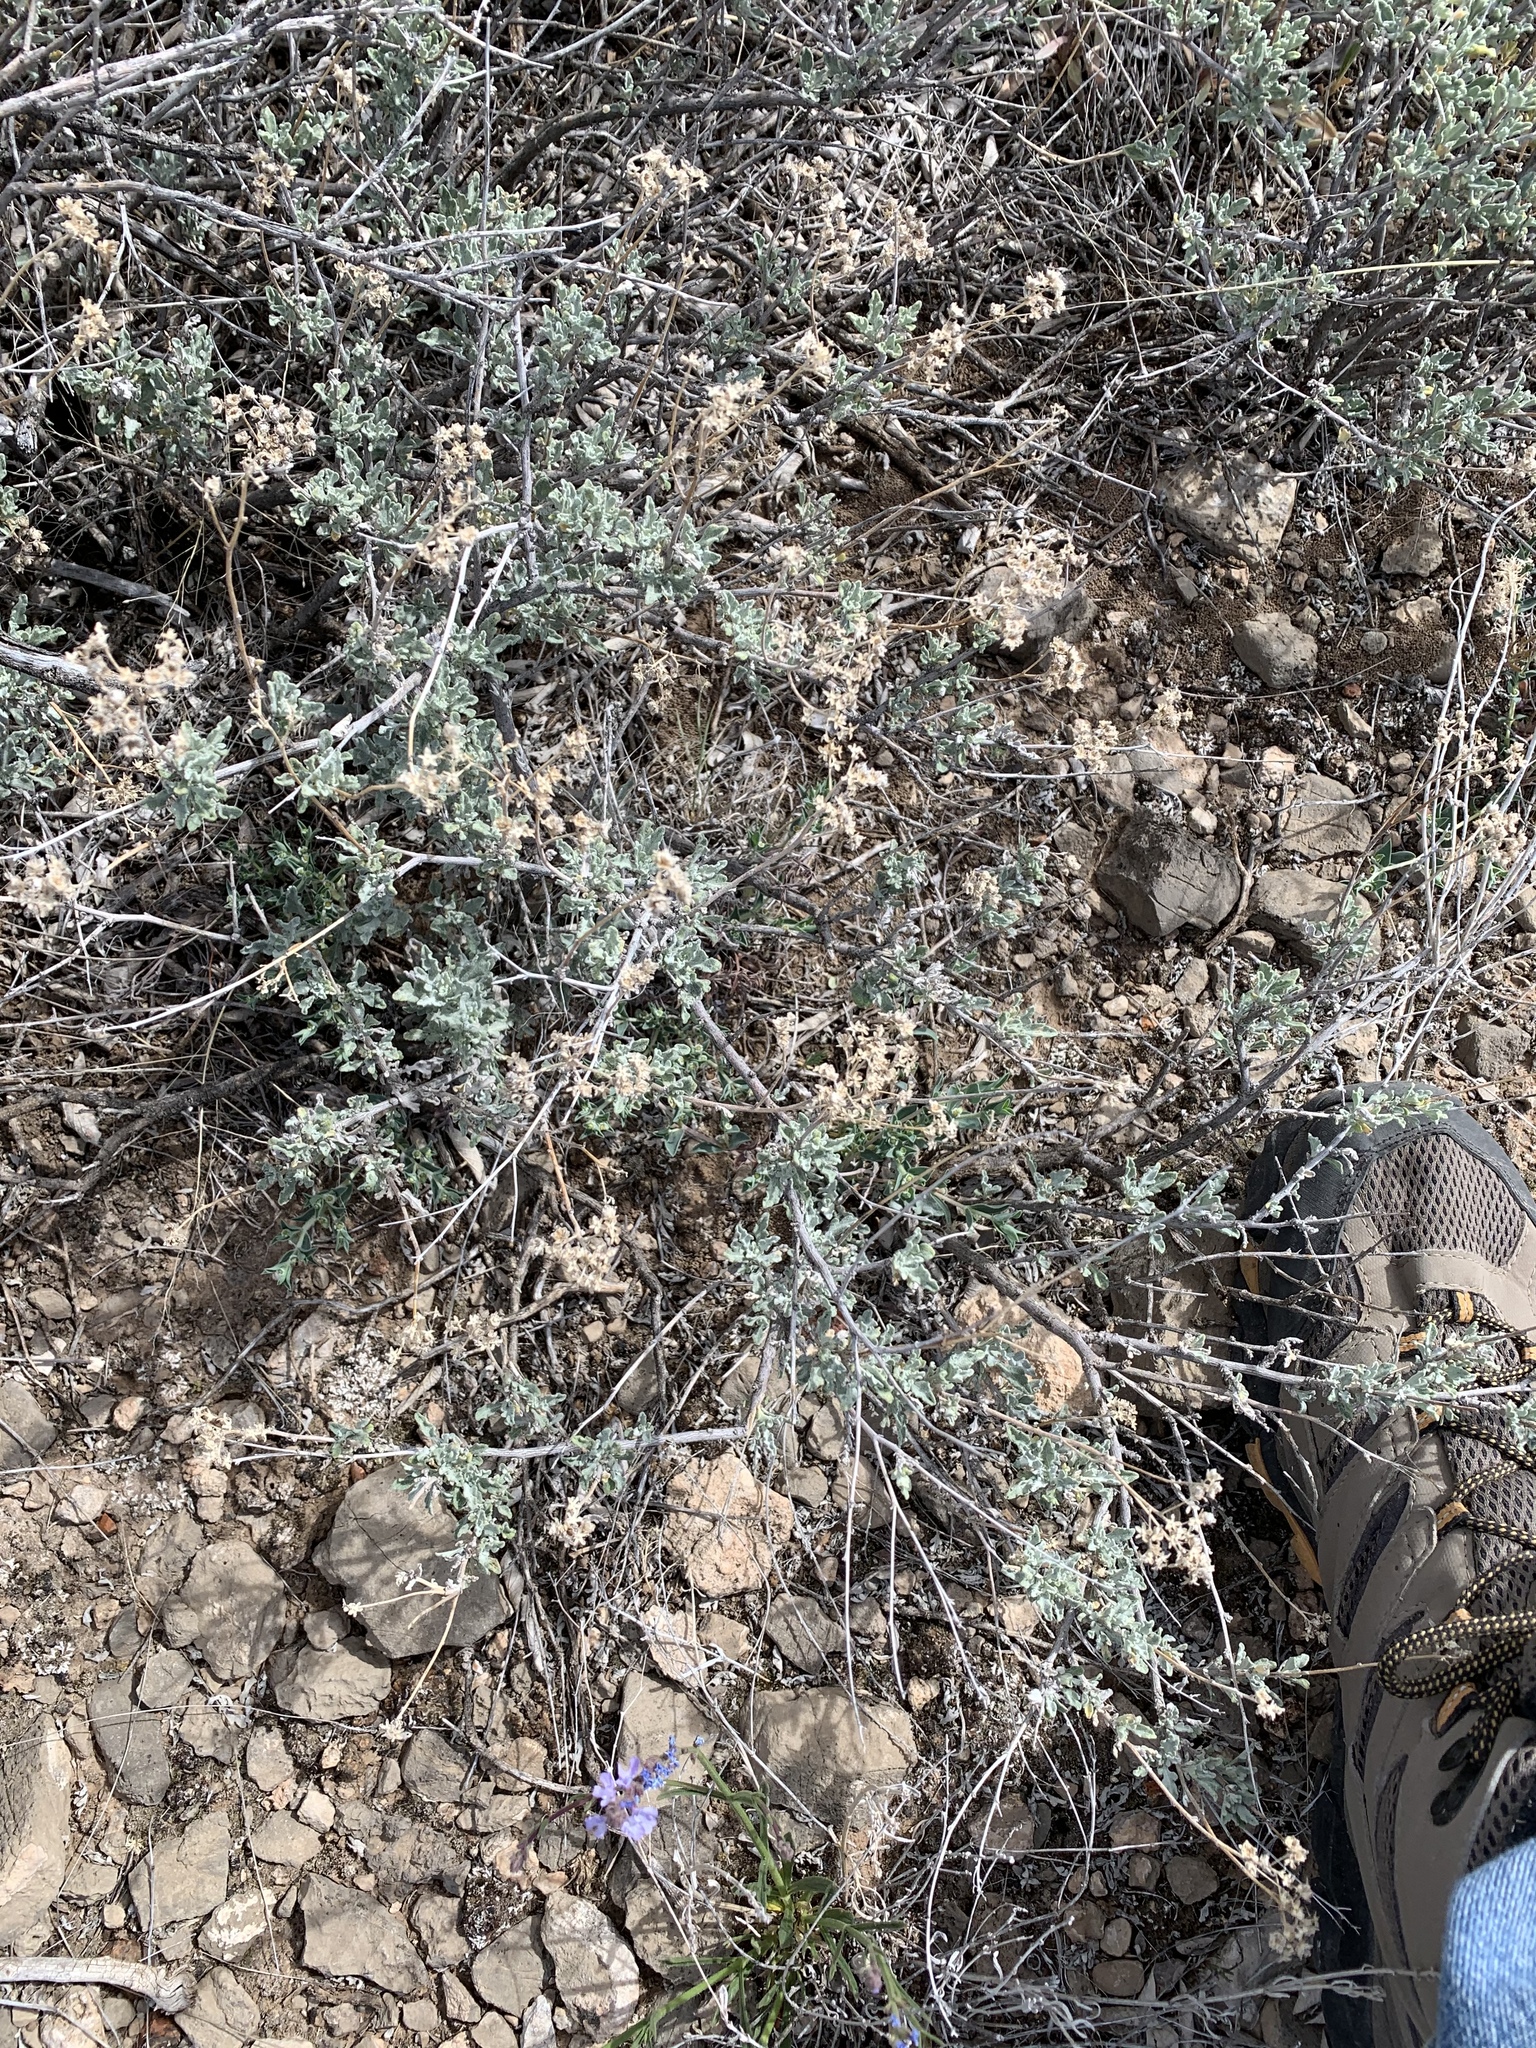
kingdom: Plantae
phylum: Tracheophyta
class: Magnoliopsida
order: Asterales
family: Asteraceae
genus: Parthenium
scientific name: Parthenium incanum
